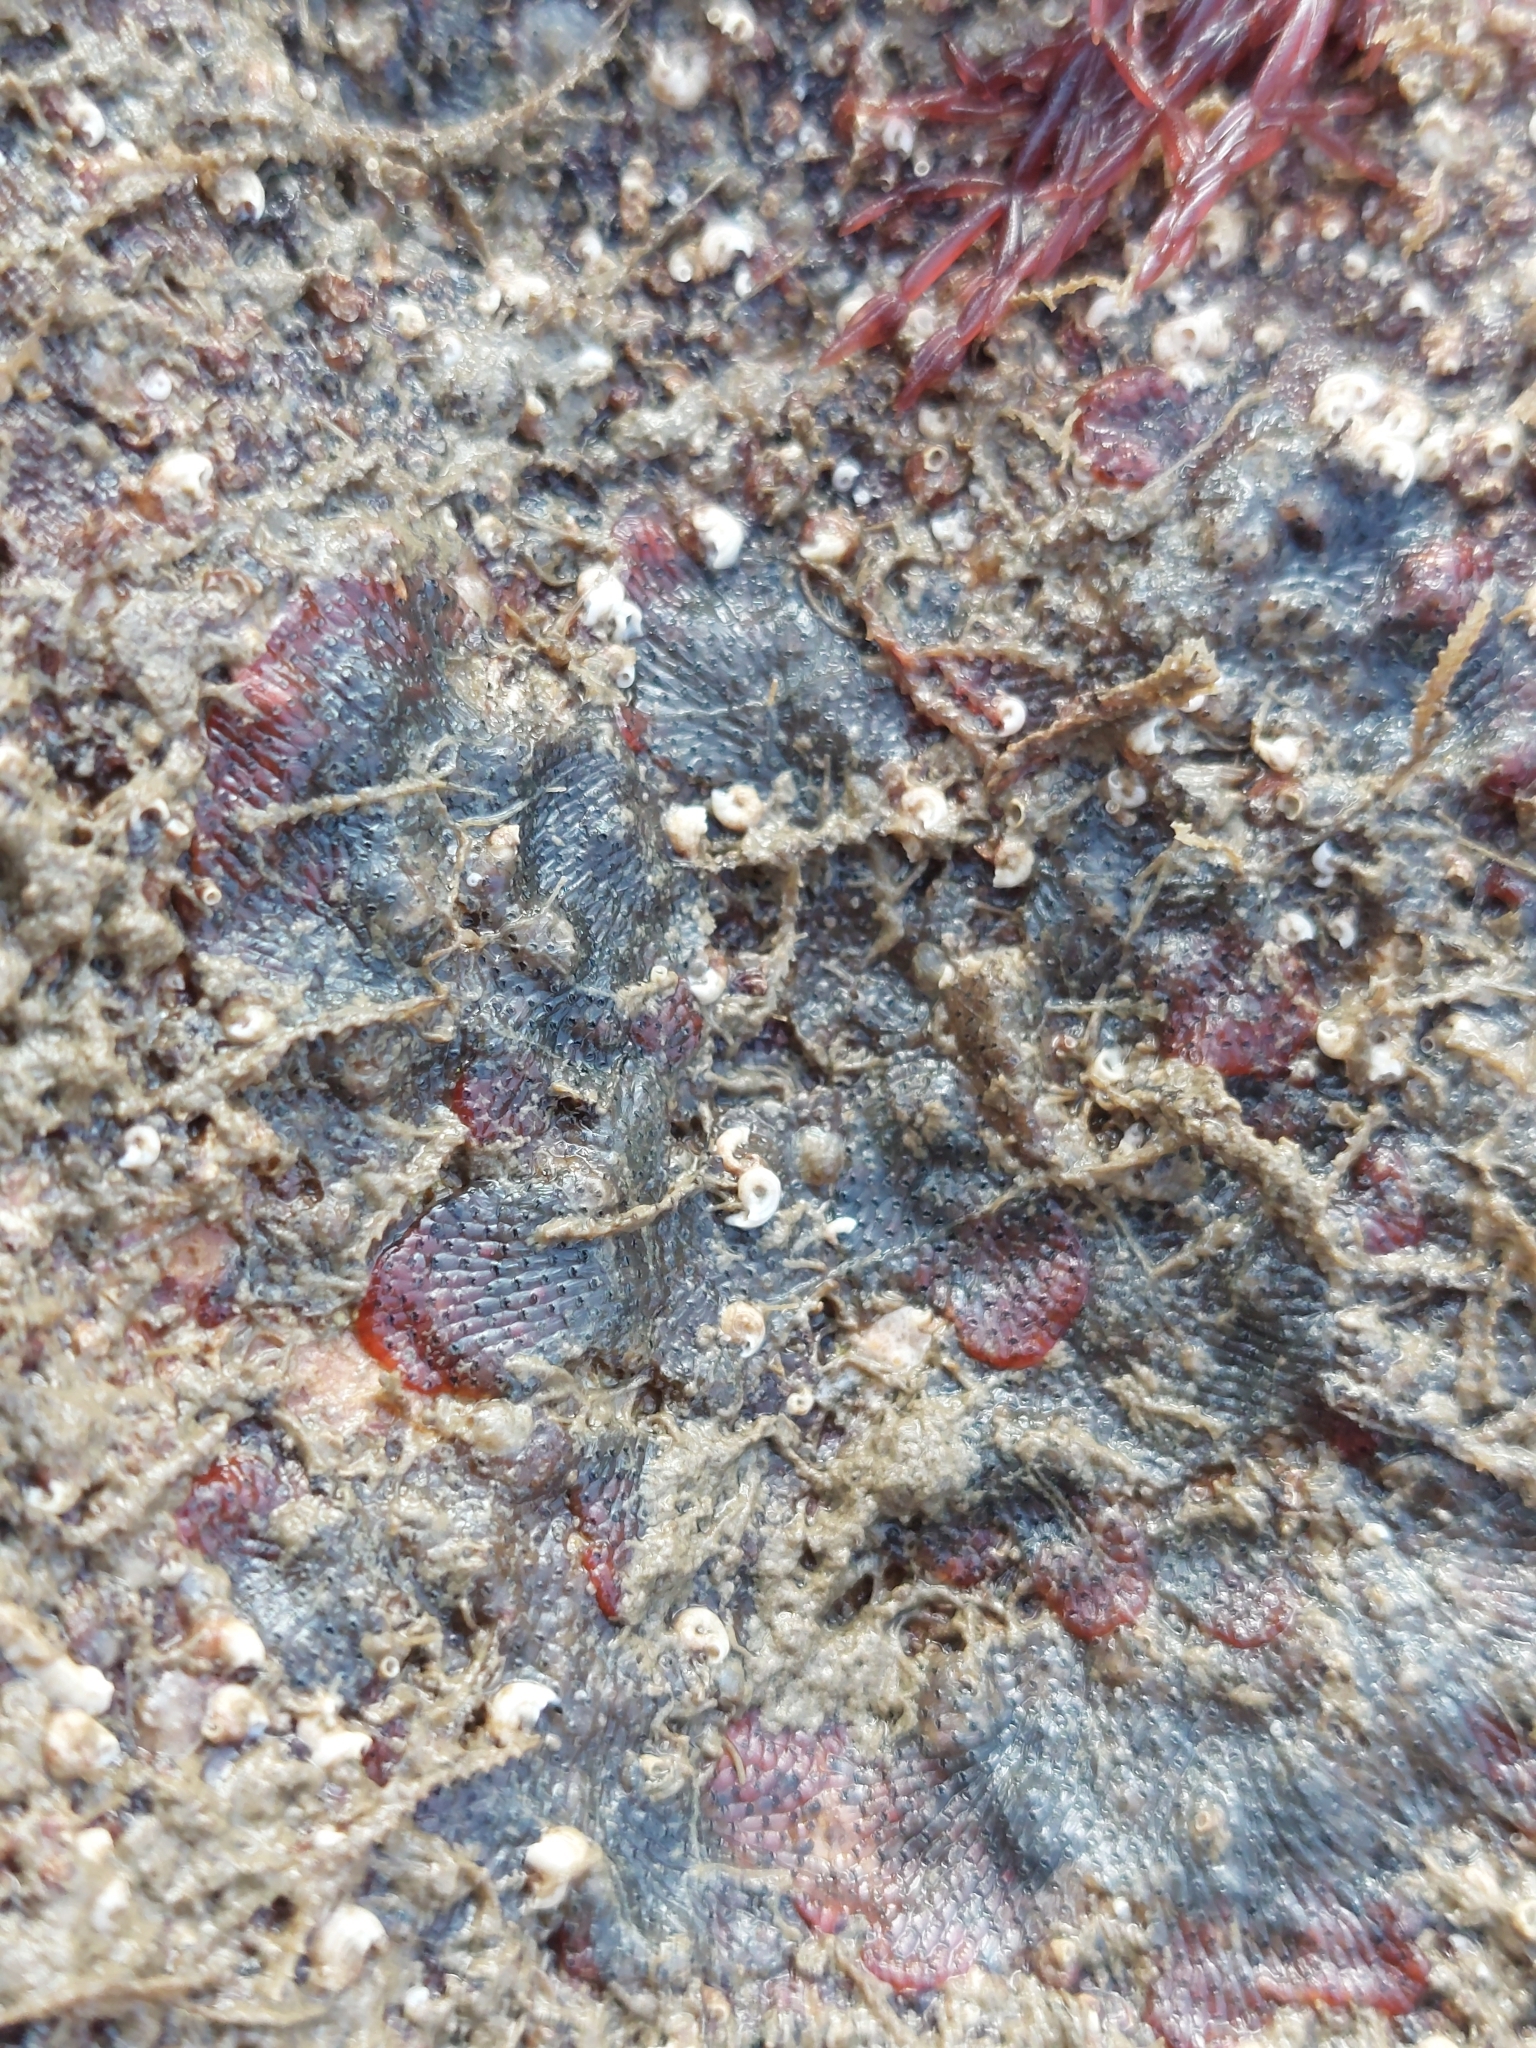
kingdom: Animalia
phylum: Bryozoa
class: Gymnolaemata
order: Cheilostomatida
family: Watersiporidae
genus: Watersipora
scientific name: Watersipora subatra
